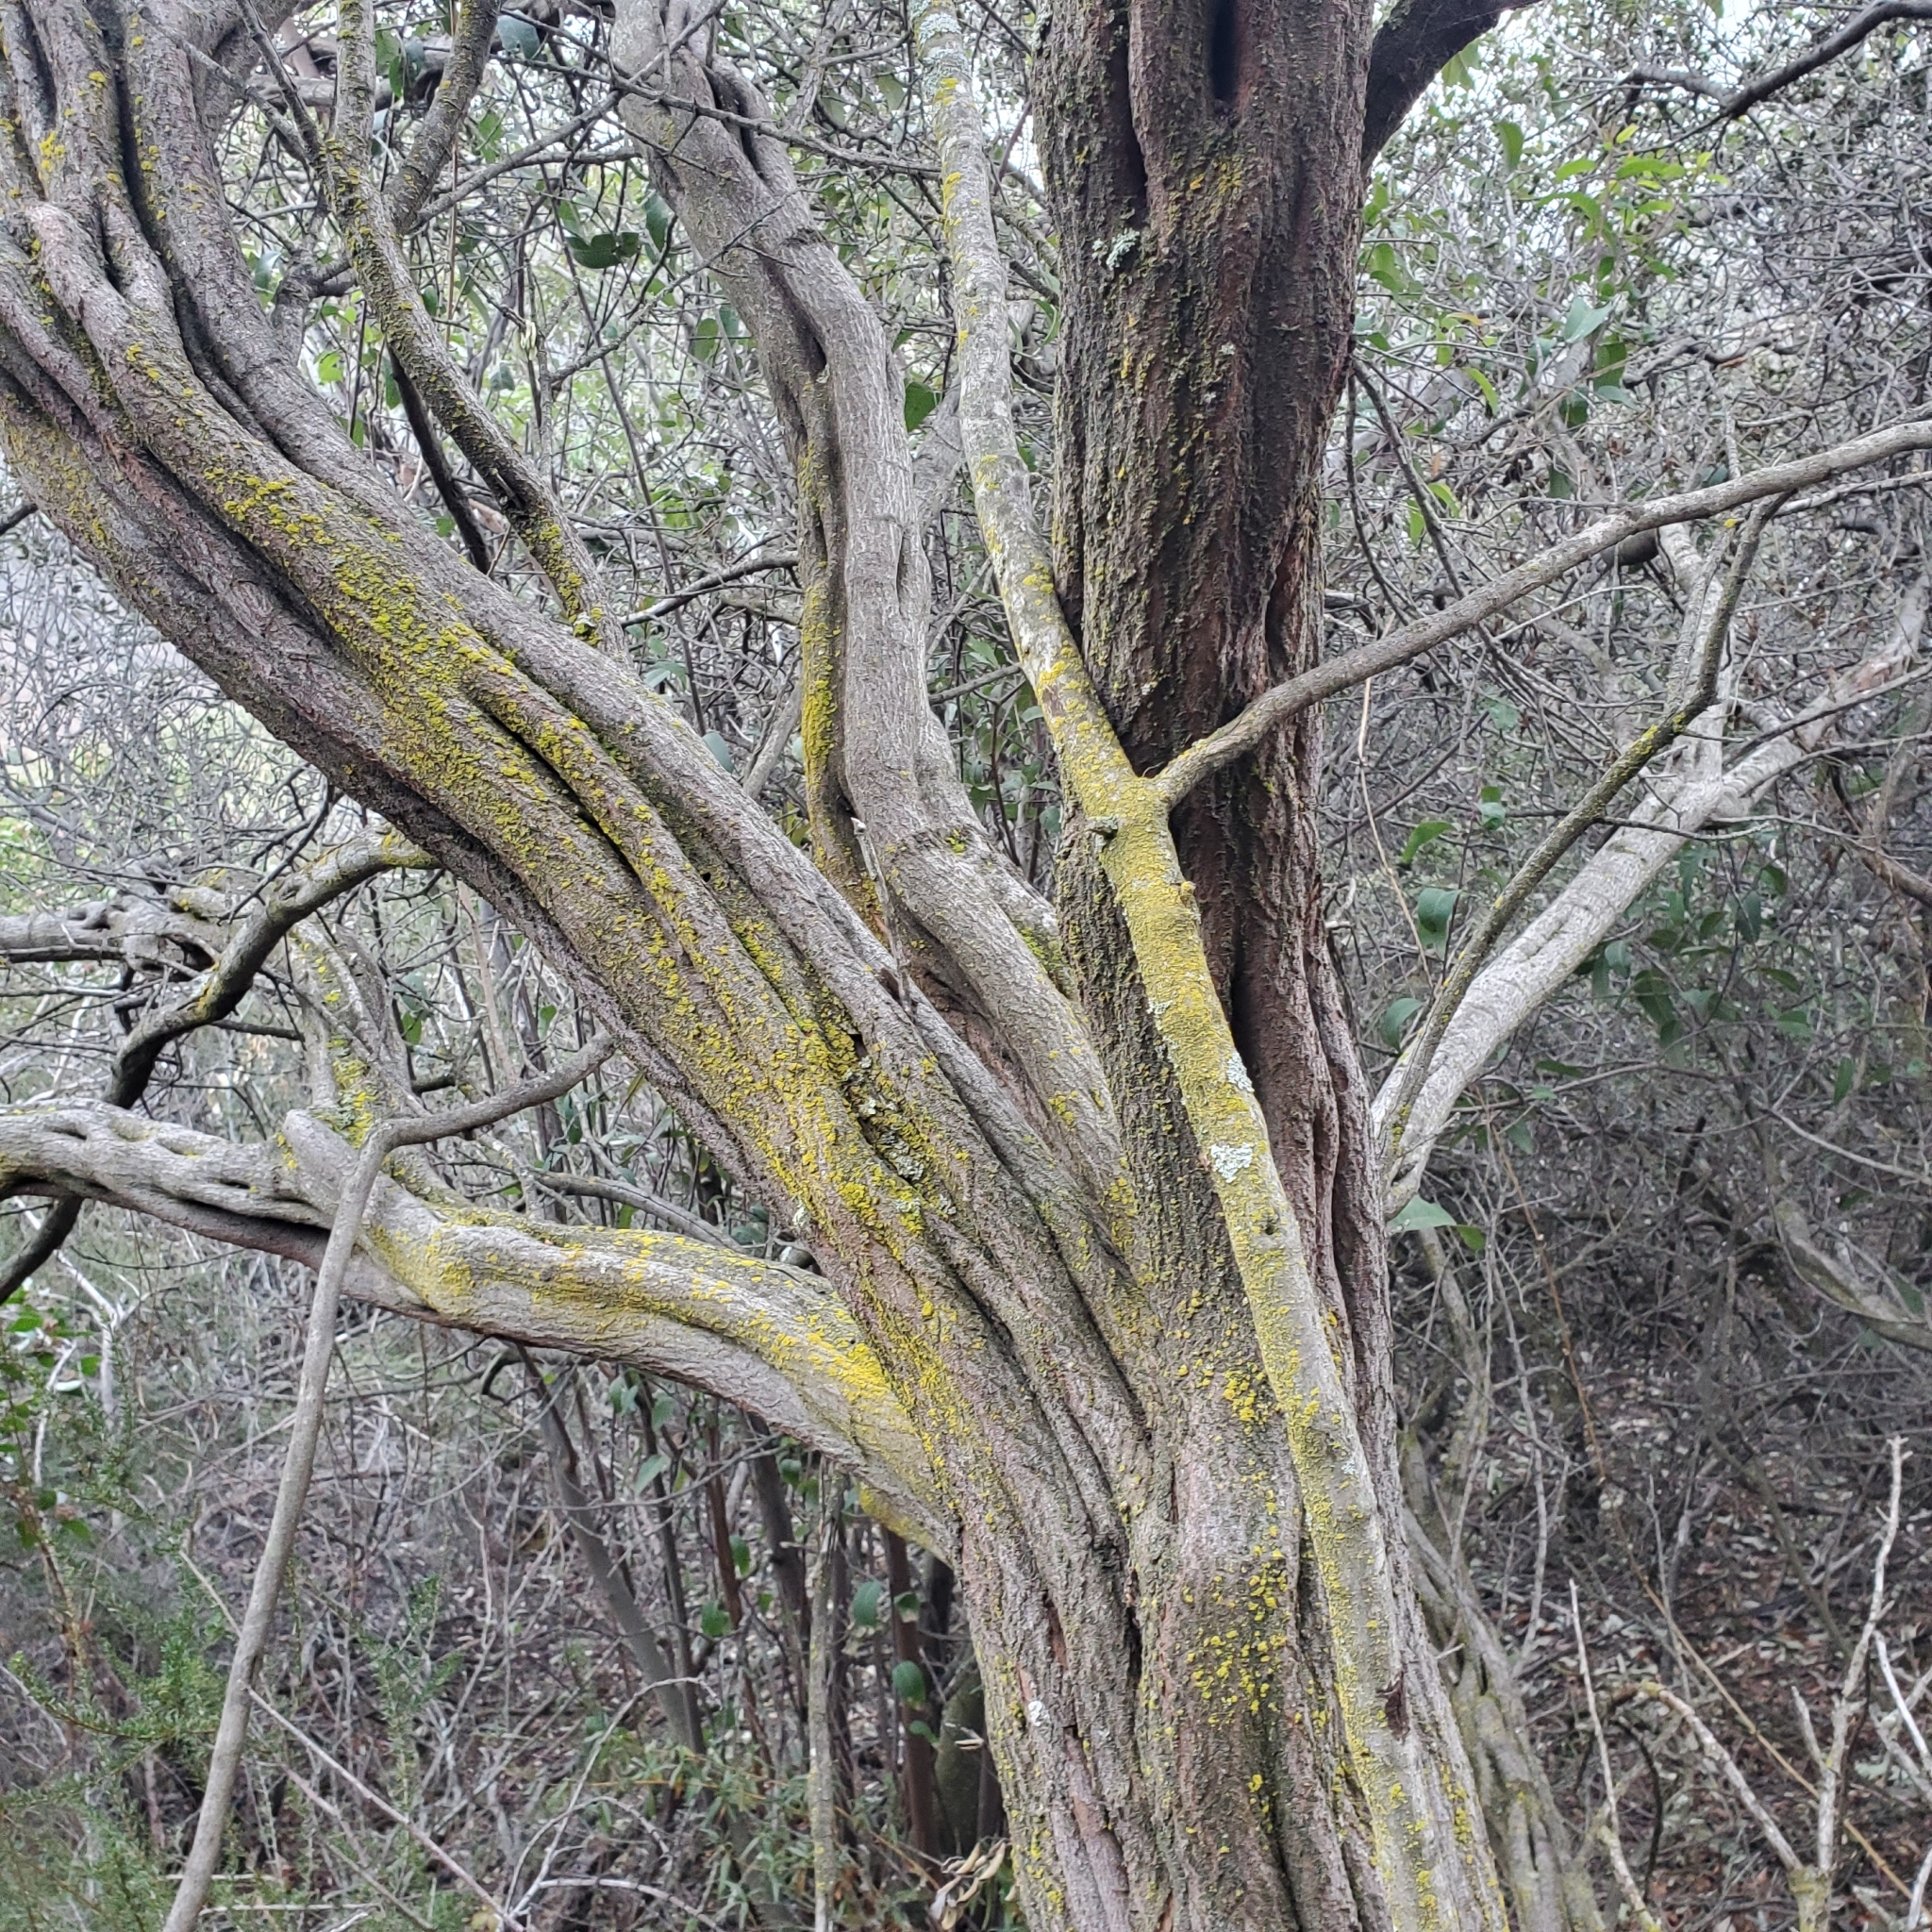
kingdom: Plantae
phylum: Tracheophyta
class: Magnoliopsida
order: Rosales
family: Rhamnaceae
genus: Ceanothus
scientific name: Ceanothus crassifolius
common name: Hoaryleaf ceanothus
